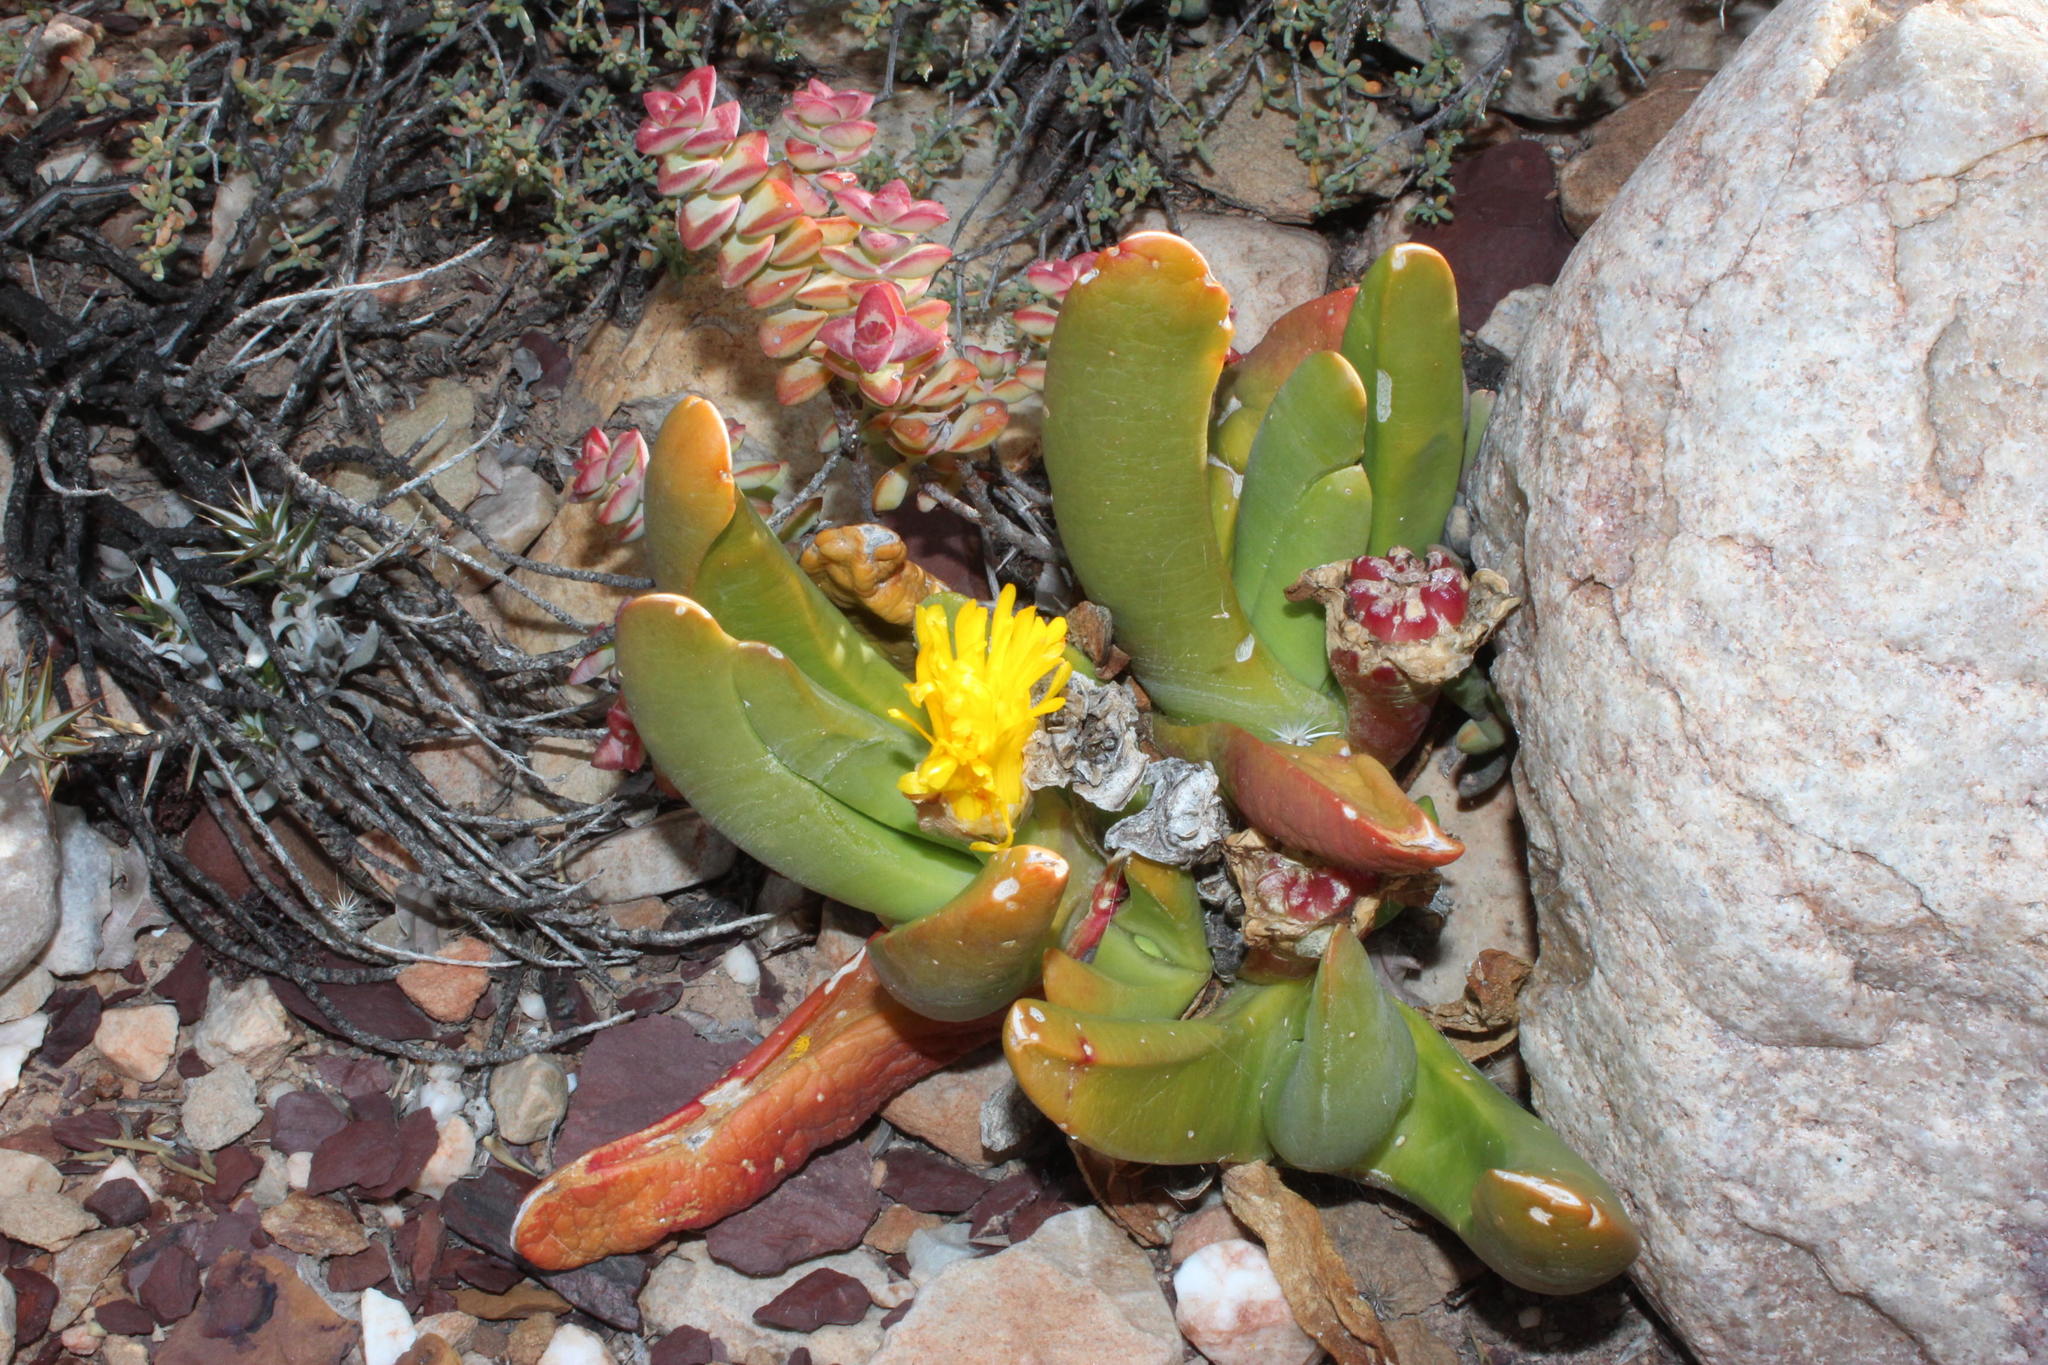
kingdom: Plantae
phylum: Tracheophyta
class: Magnoliopsida
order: Caryophyllales
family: Aizoaceae
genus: Glottiphyllum
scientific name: Glottiphyllum regium
